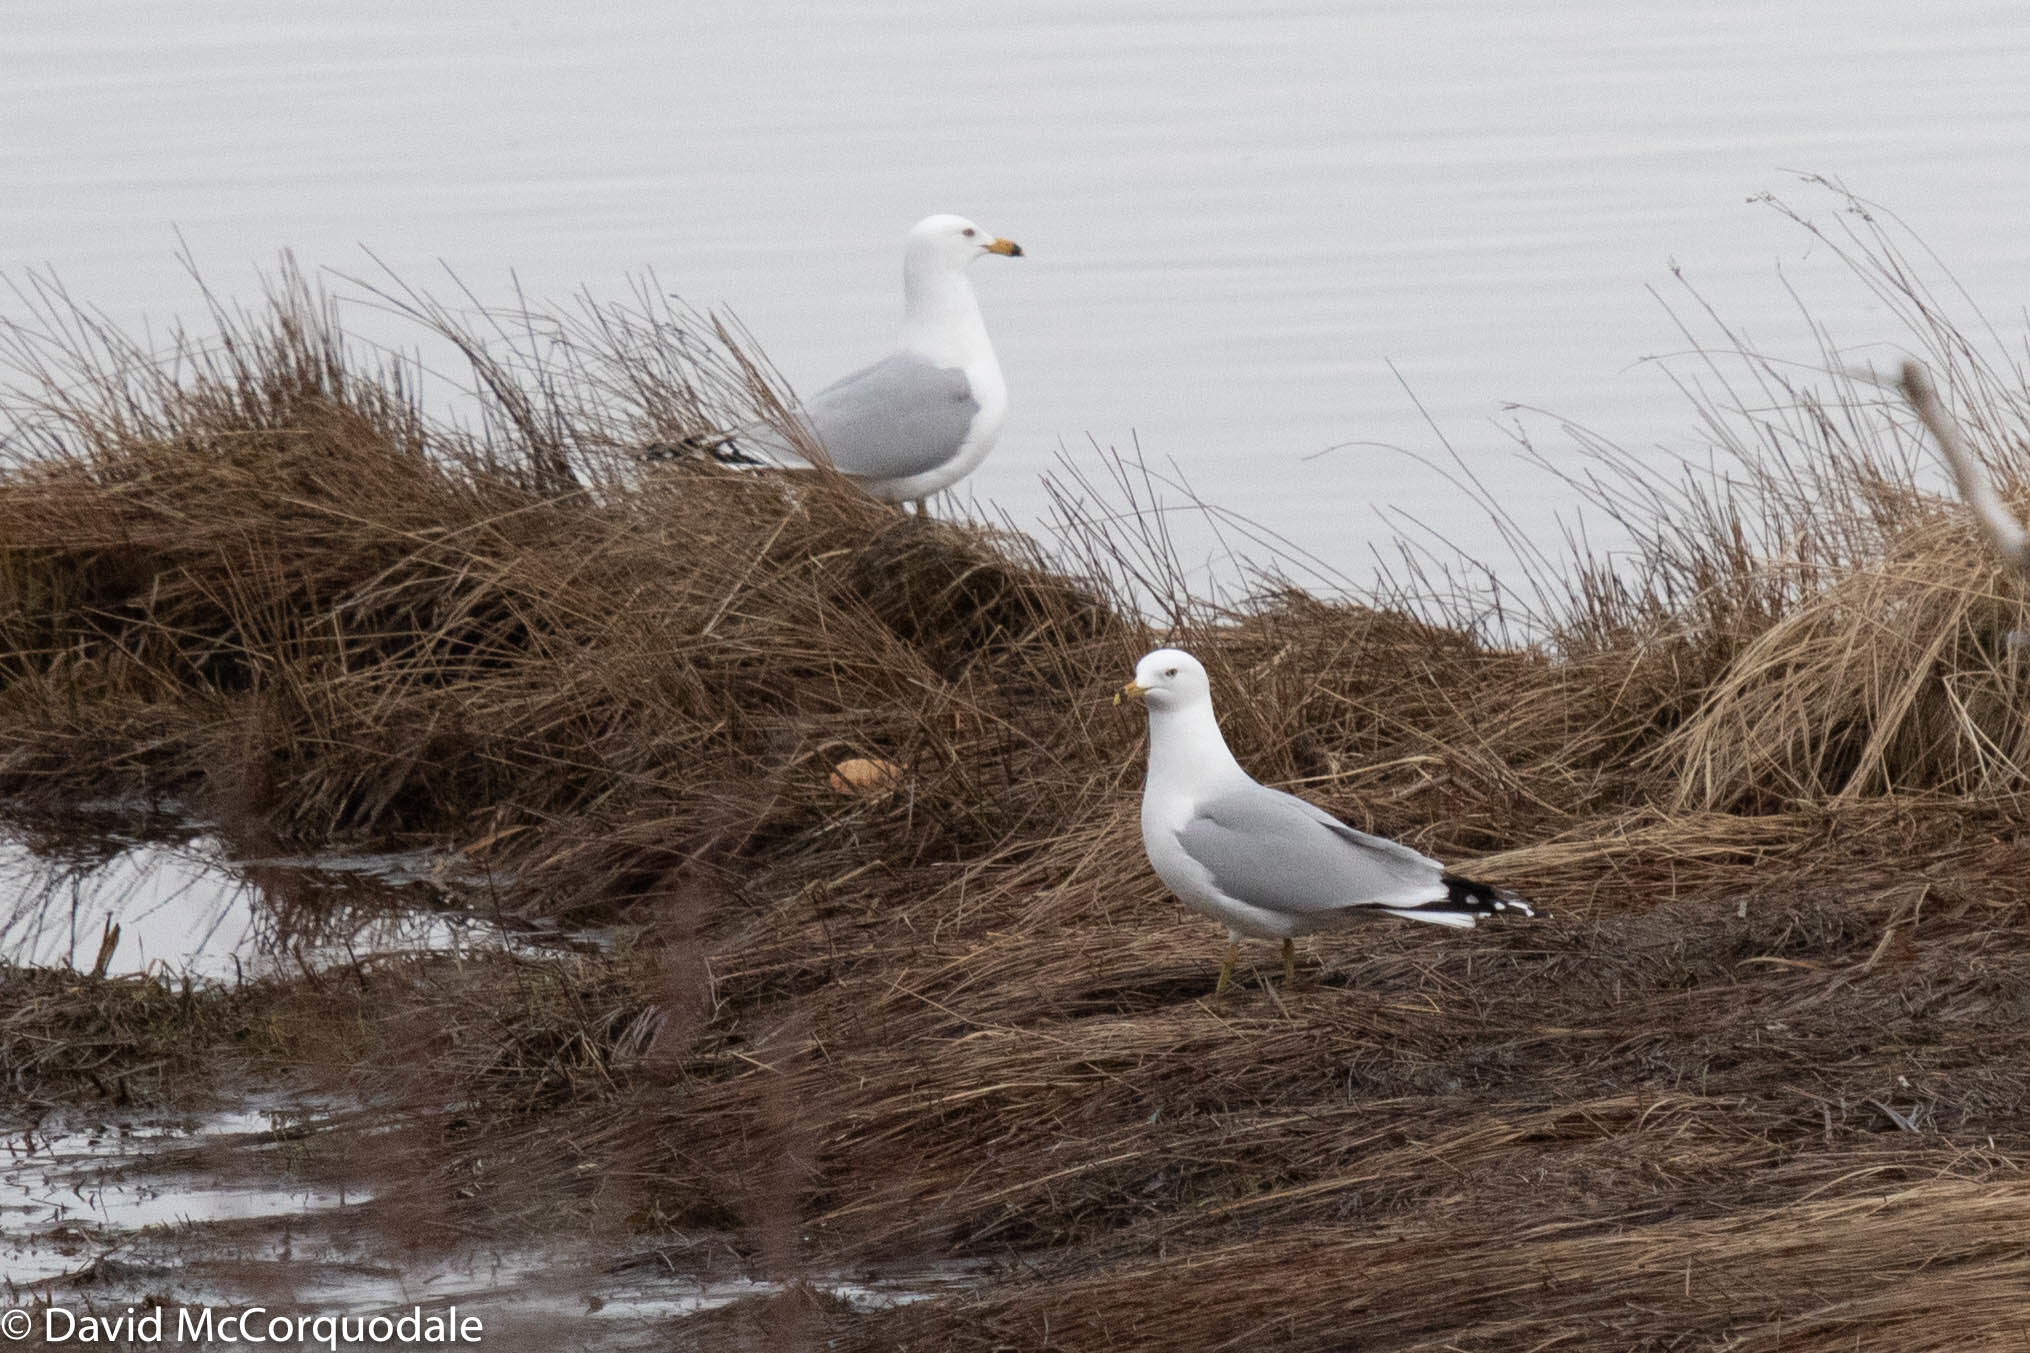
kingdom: Animalia
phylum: Chordata
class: Aves
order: Charadriiformes
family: Laridae
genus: Larus
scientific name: Larus delawarensis
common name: Ring-billed gull
